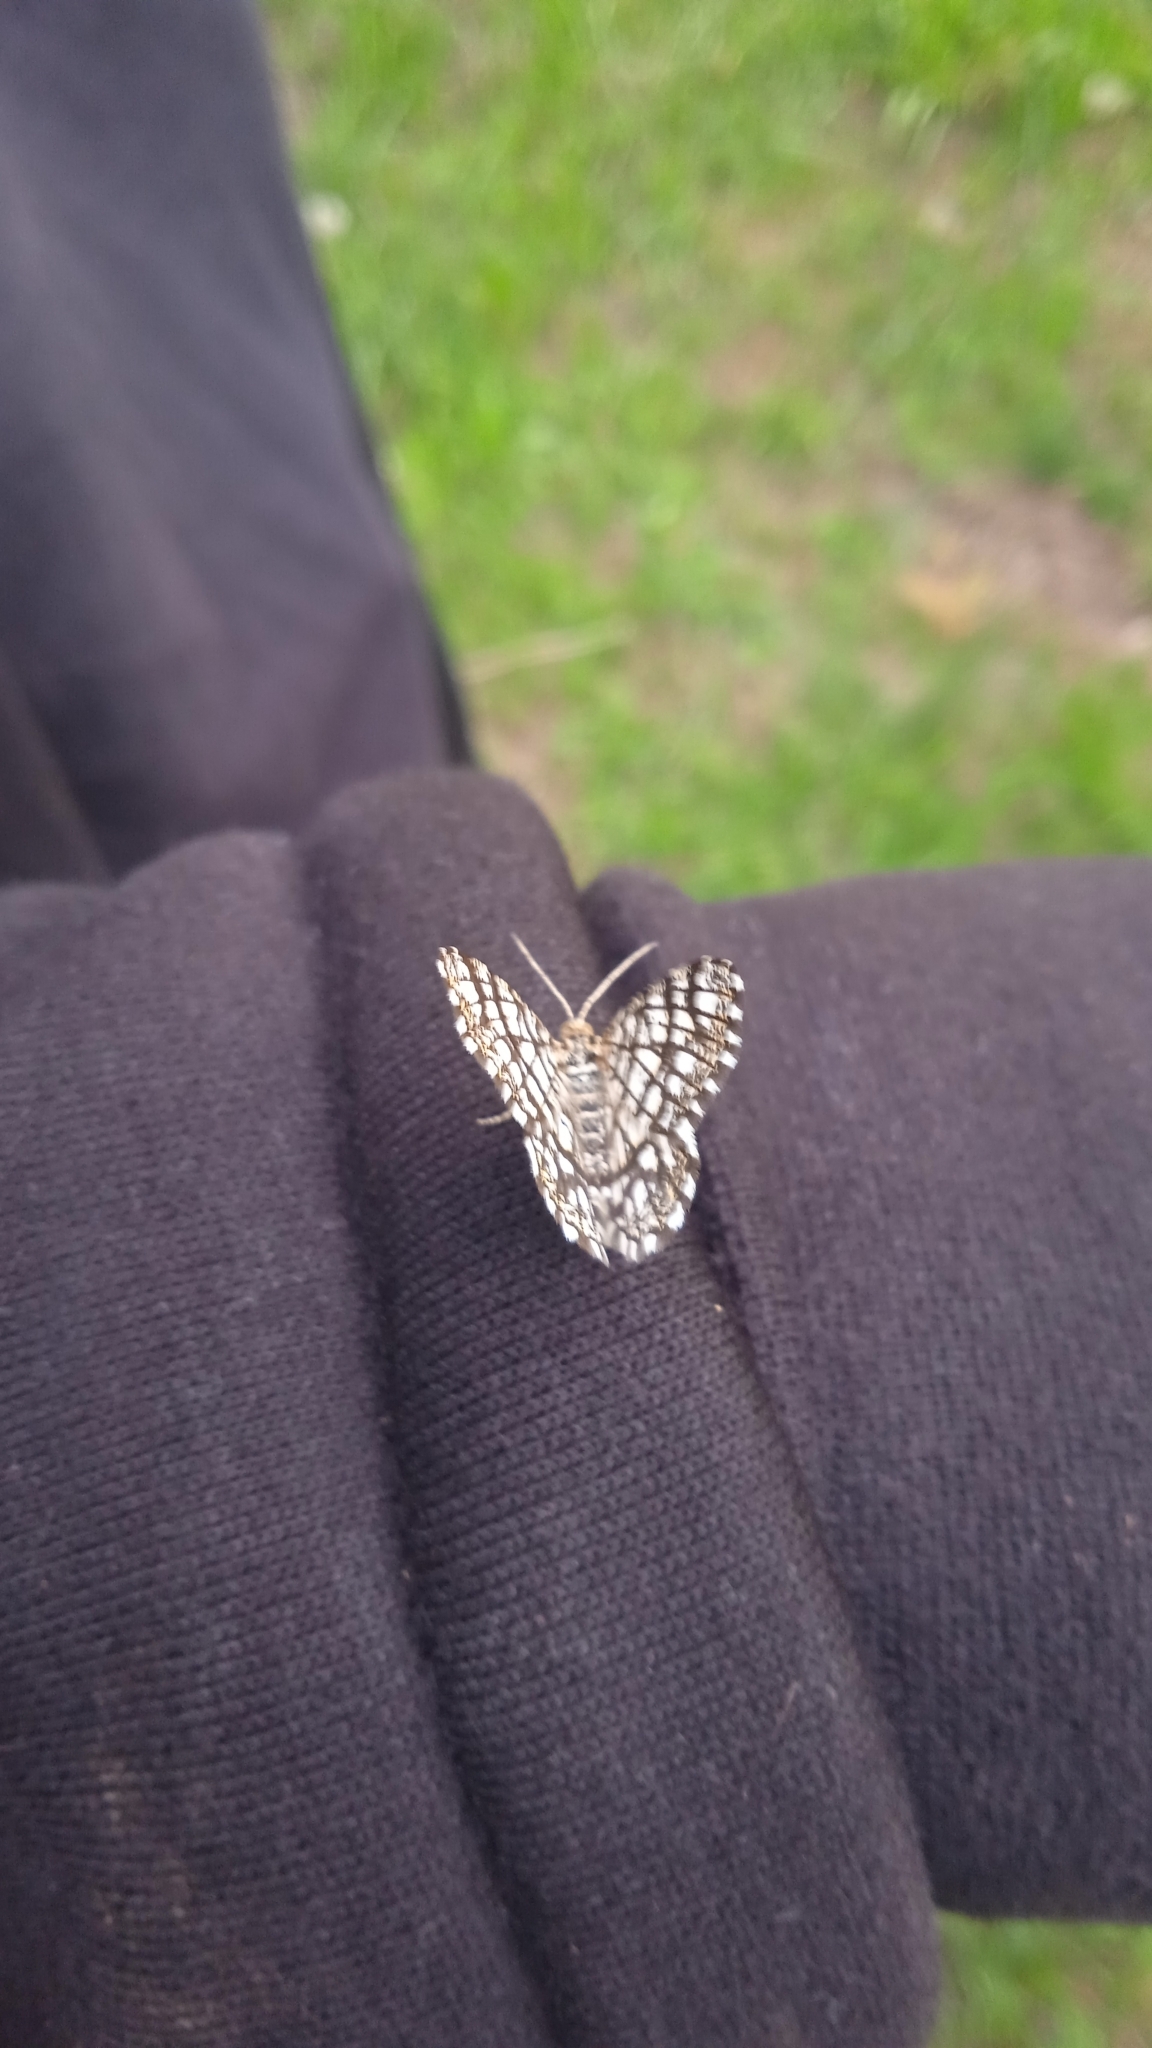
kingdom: Animalia
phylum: Arthropoda
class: Insecta
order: Lepidoptera
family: Geometridae
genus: Chiasmia
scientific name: Chiasmia clathrata
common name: Latticed heath
